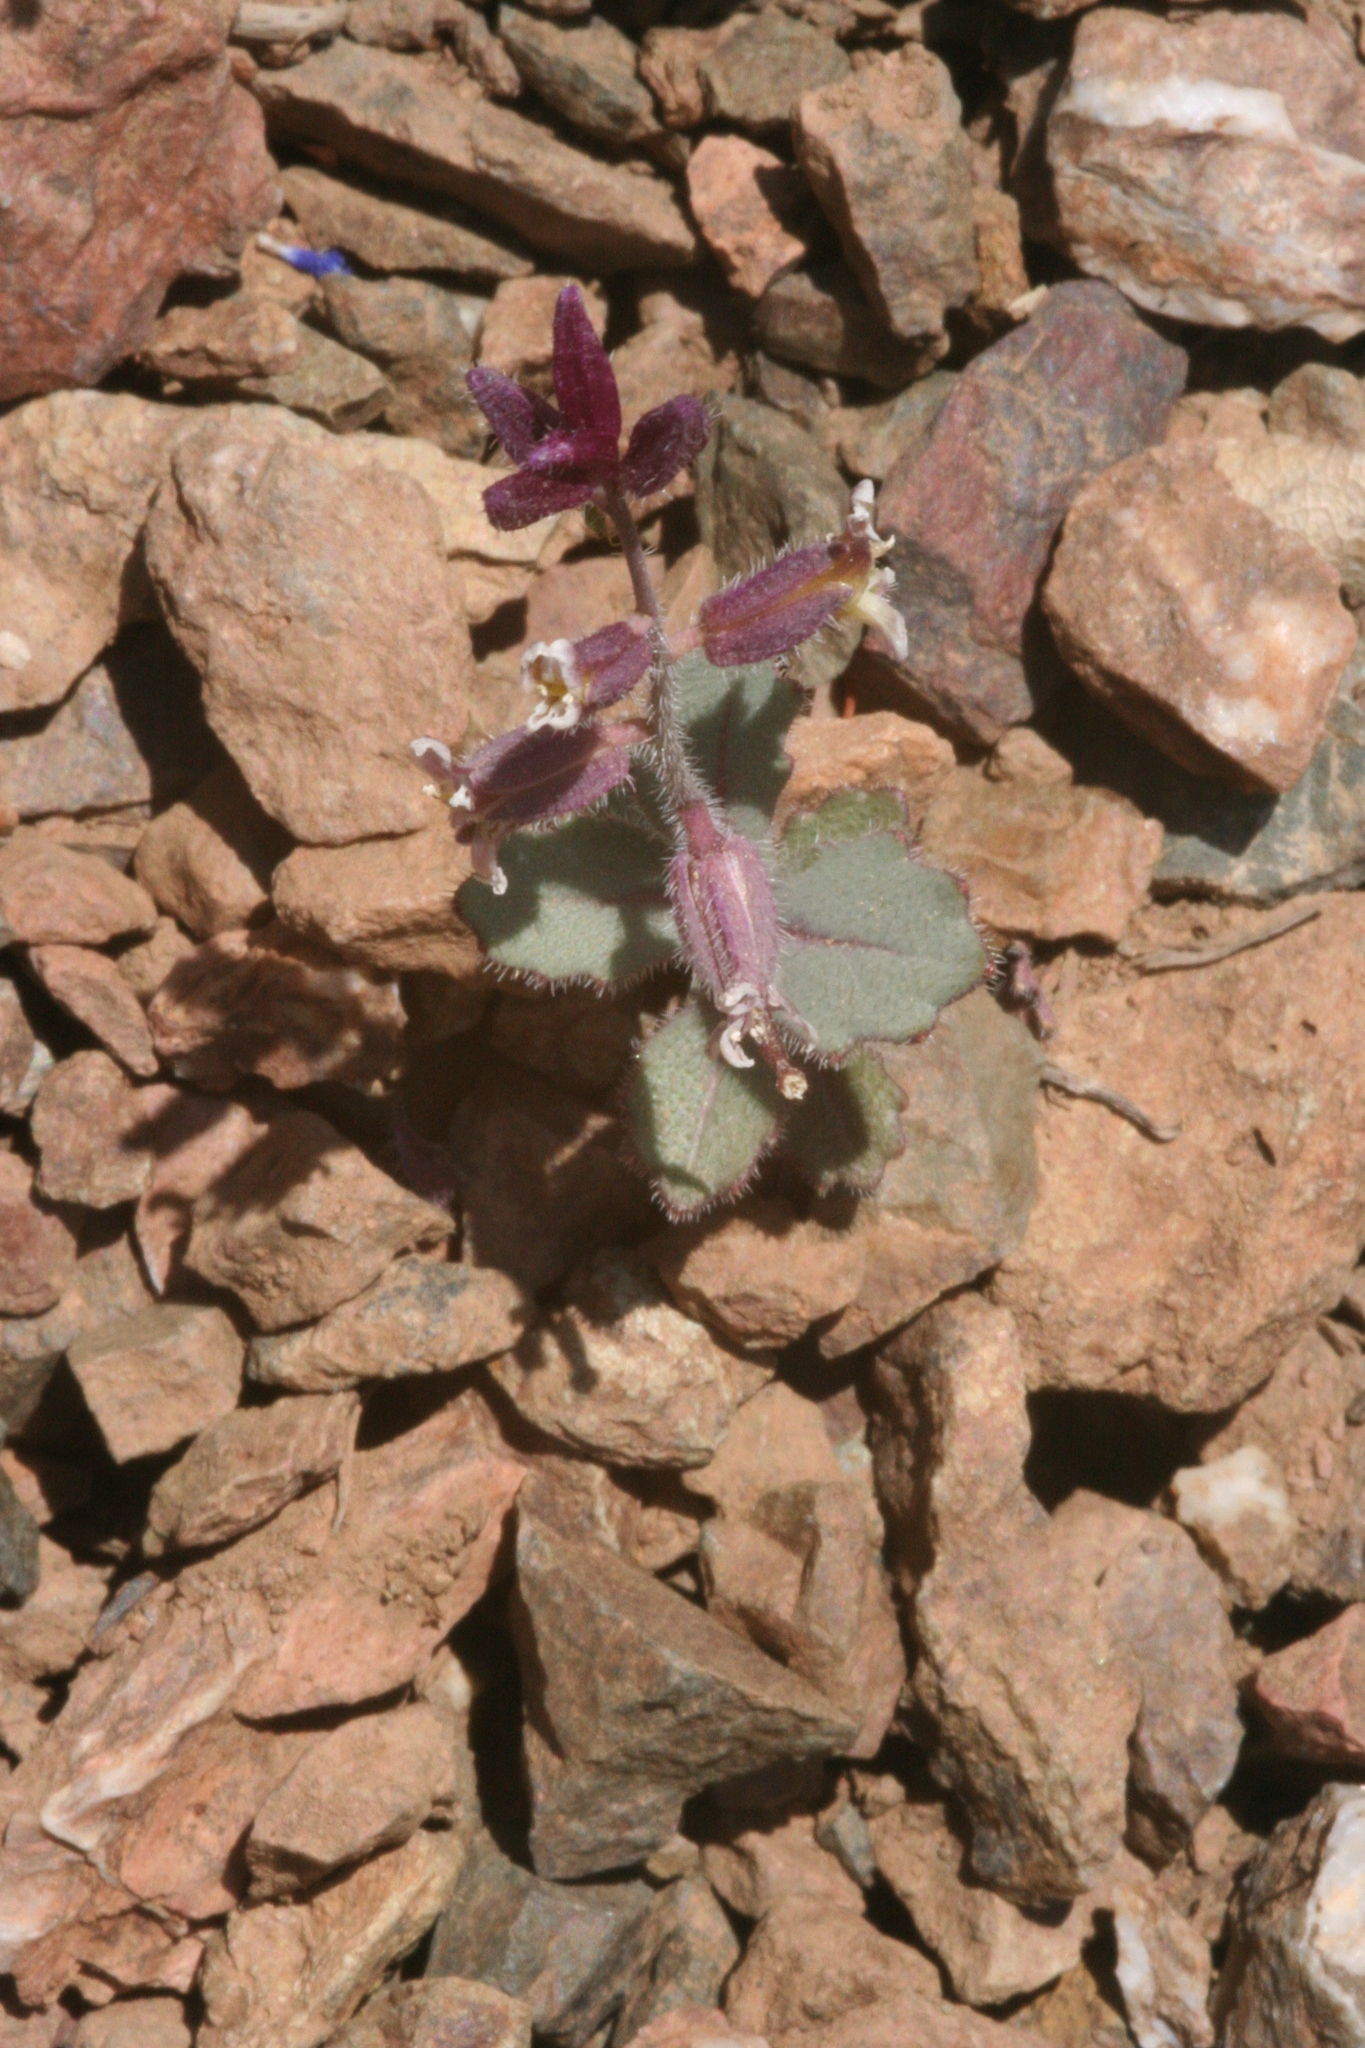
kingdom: Plantae
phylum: Tracheophyta
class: Magnoliopsida
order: Brassicales
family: Brassicaceae
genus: Streptanthus
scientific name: Streptanthus hispidus
